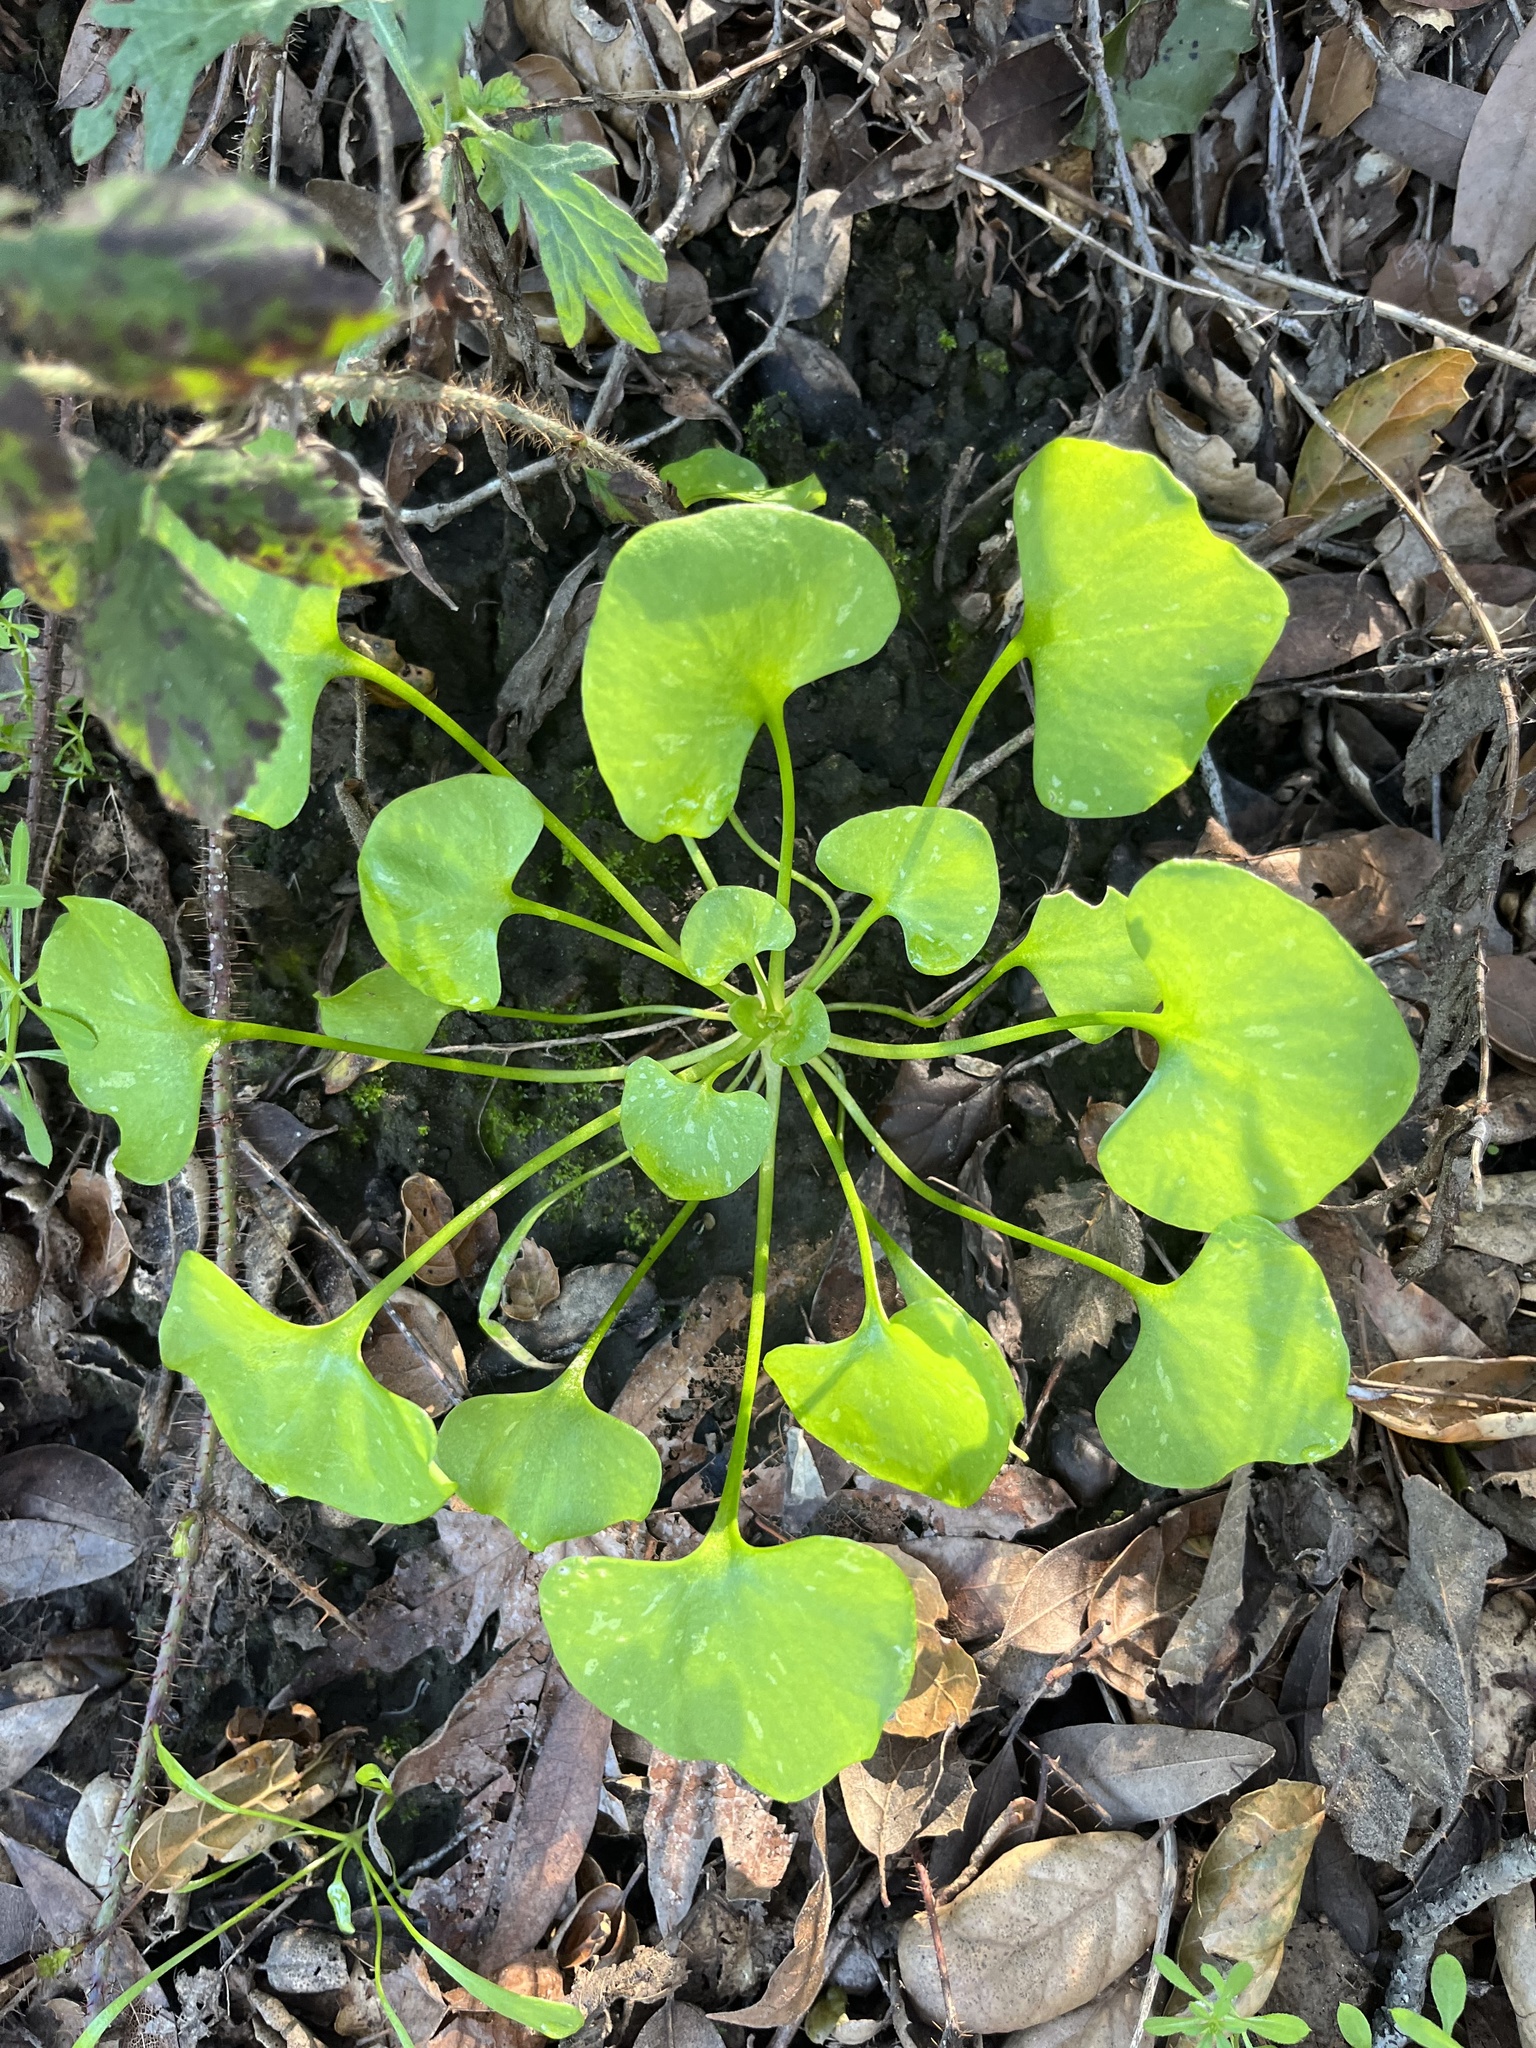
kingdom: Plantae
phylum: Tracheophyta
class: Magnoliopsida
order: Caryophyllales
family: Montiaceae
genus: Claytonia
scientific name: Claytonia perfoliata
